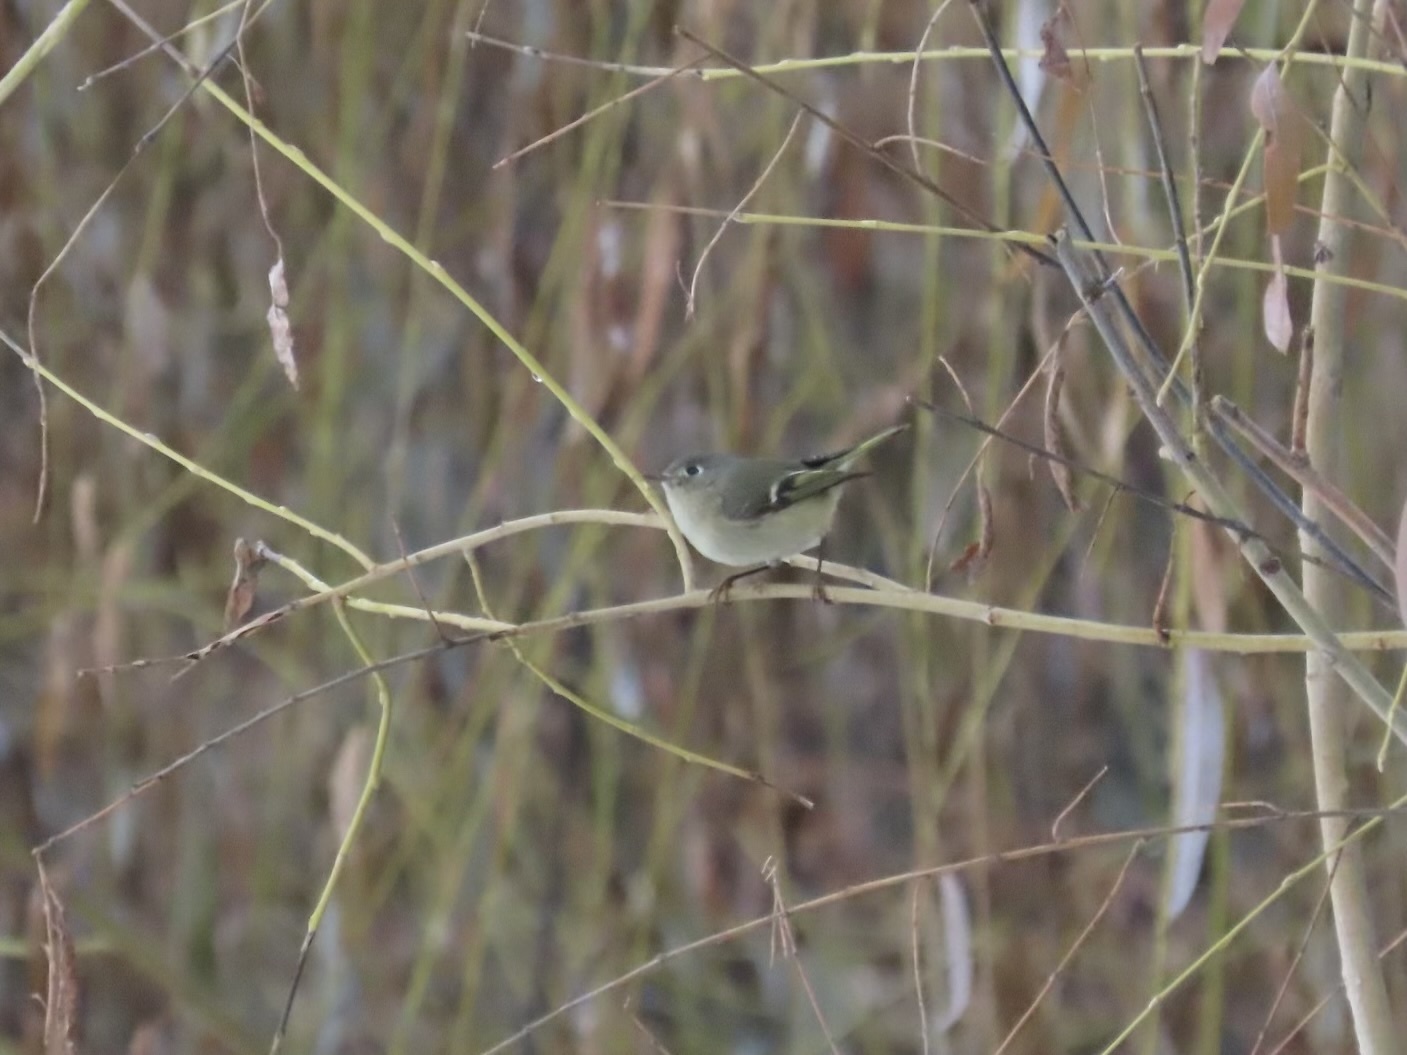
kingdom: Animalia
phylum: Chordata
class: Aves
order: Passeriformes
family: Regulidae
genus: Regulus
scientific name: Regulus calendula
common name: Ruby-crowned kinglet
